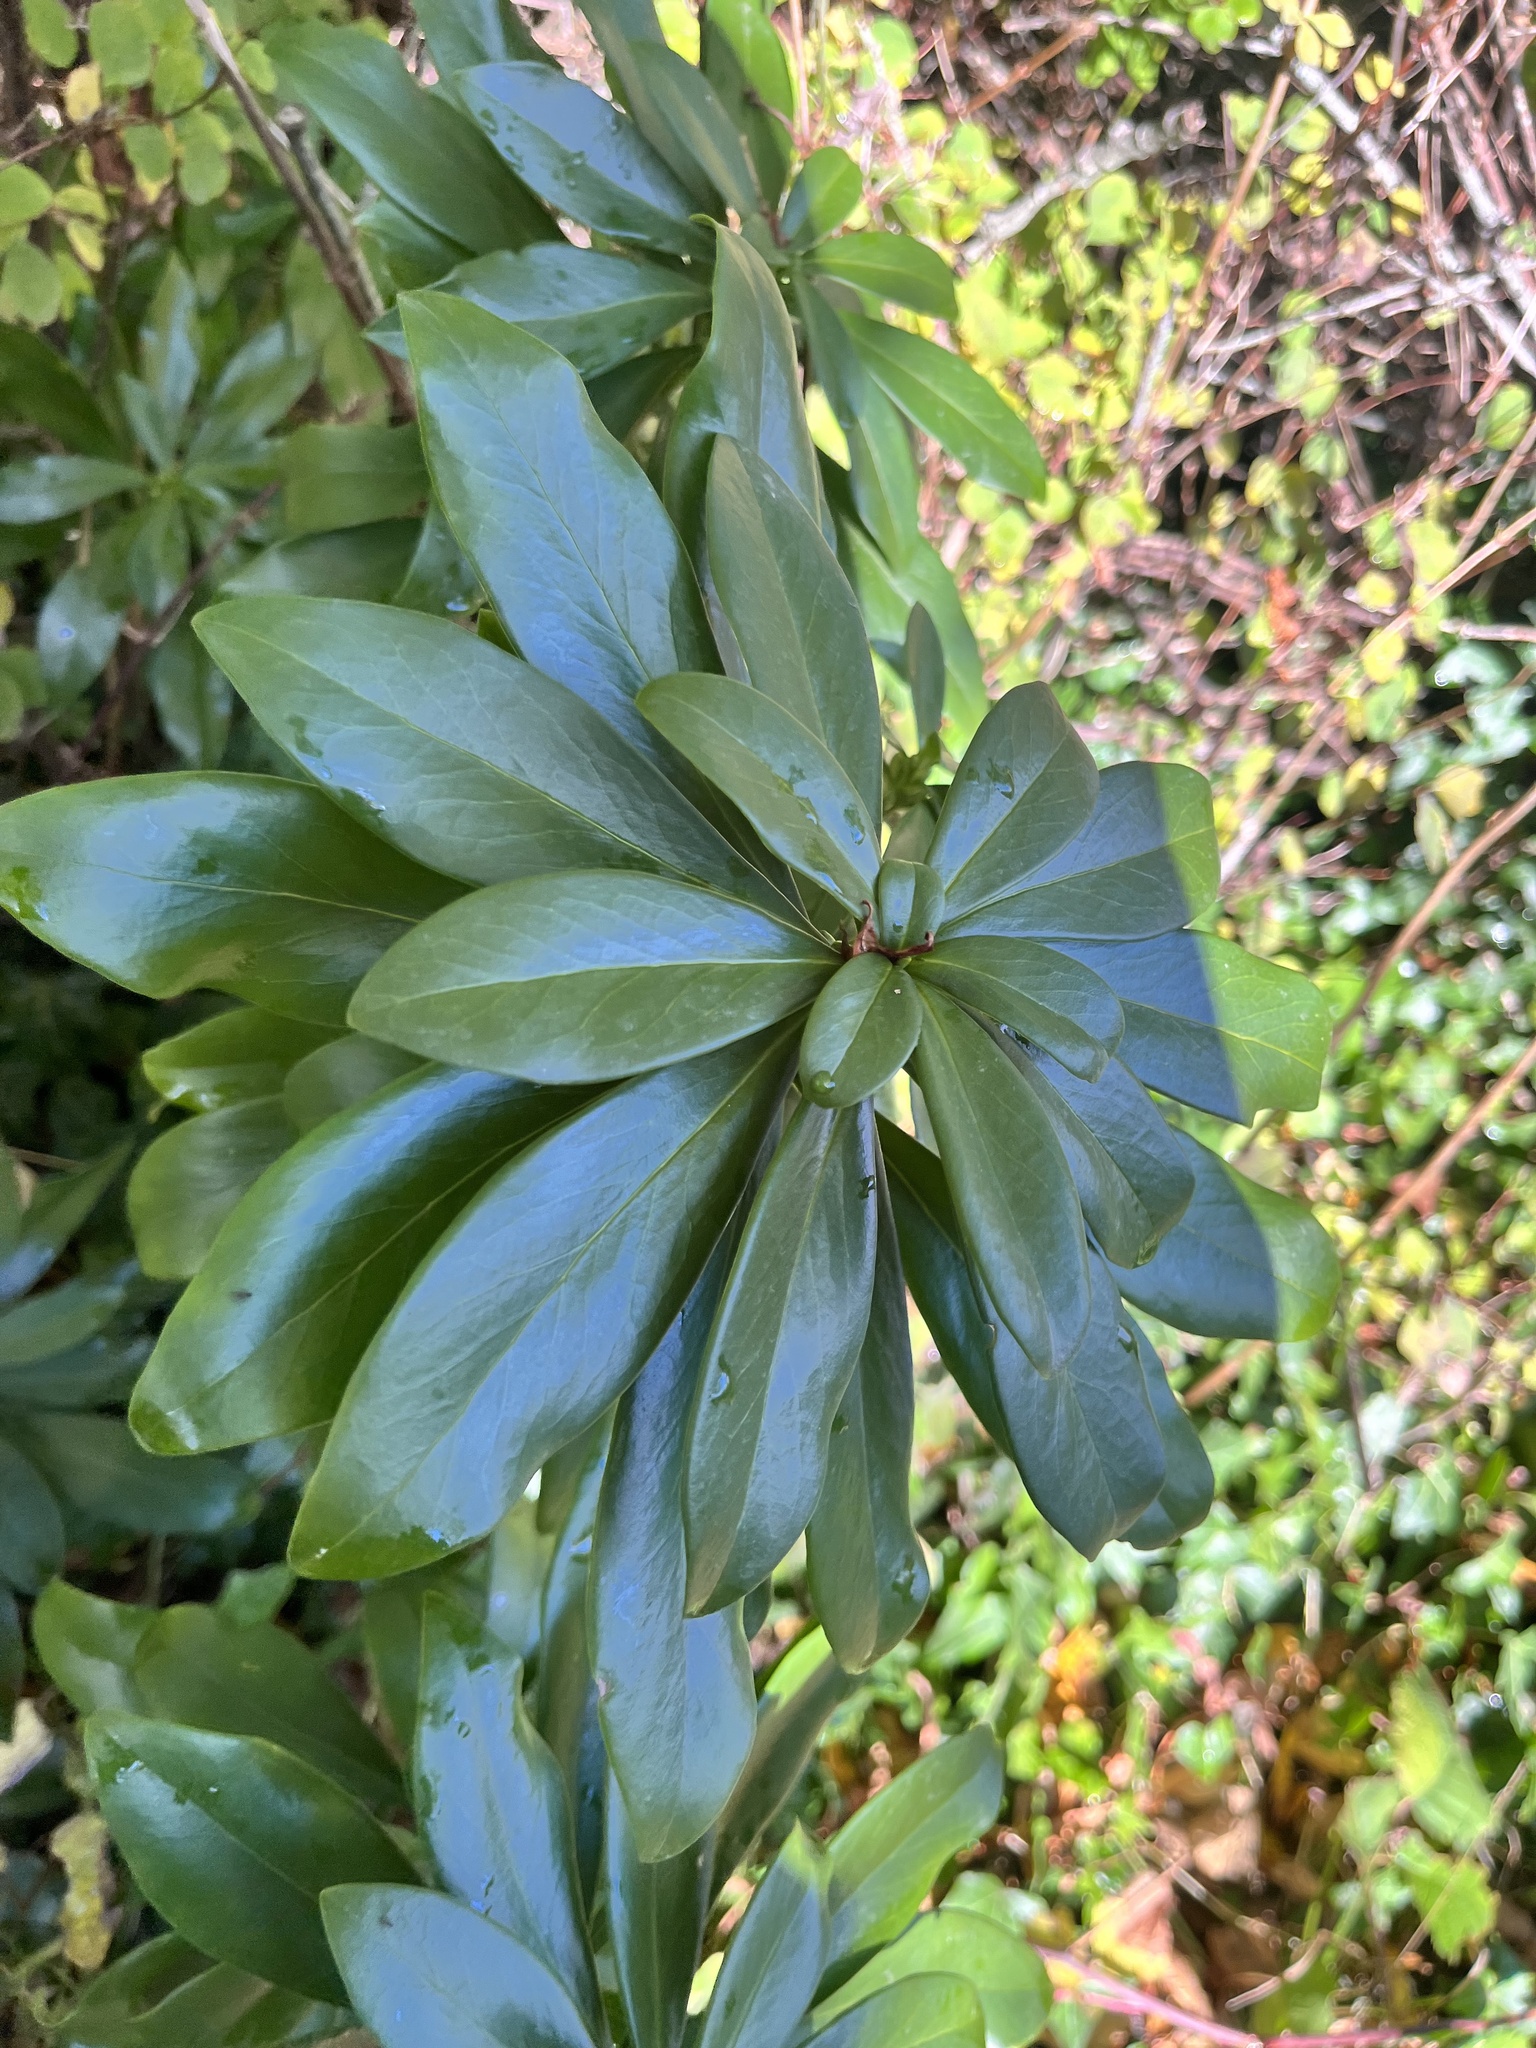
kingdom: Plantae
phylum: Tracheophyta
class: Magnoliopsida
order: Malvales
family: Thymelaeaceae
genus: Daphne
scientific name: Daphne laureola
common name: Spurge-laurel
